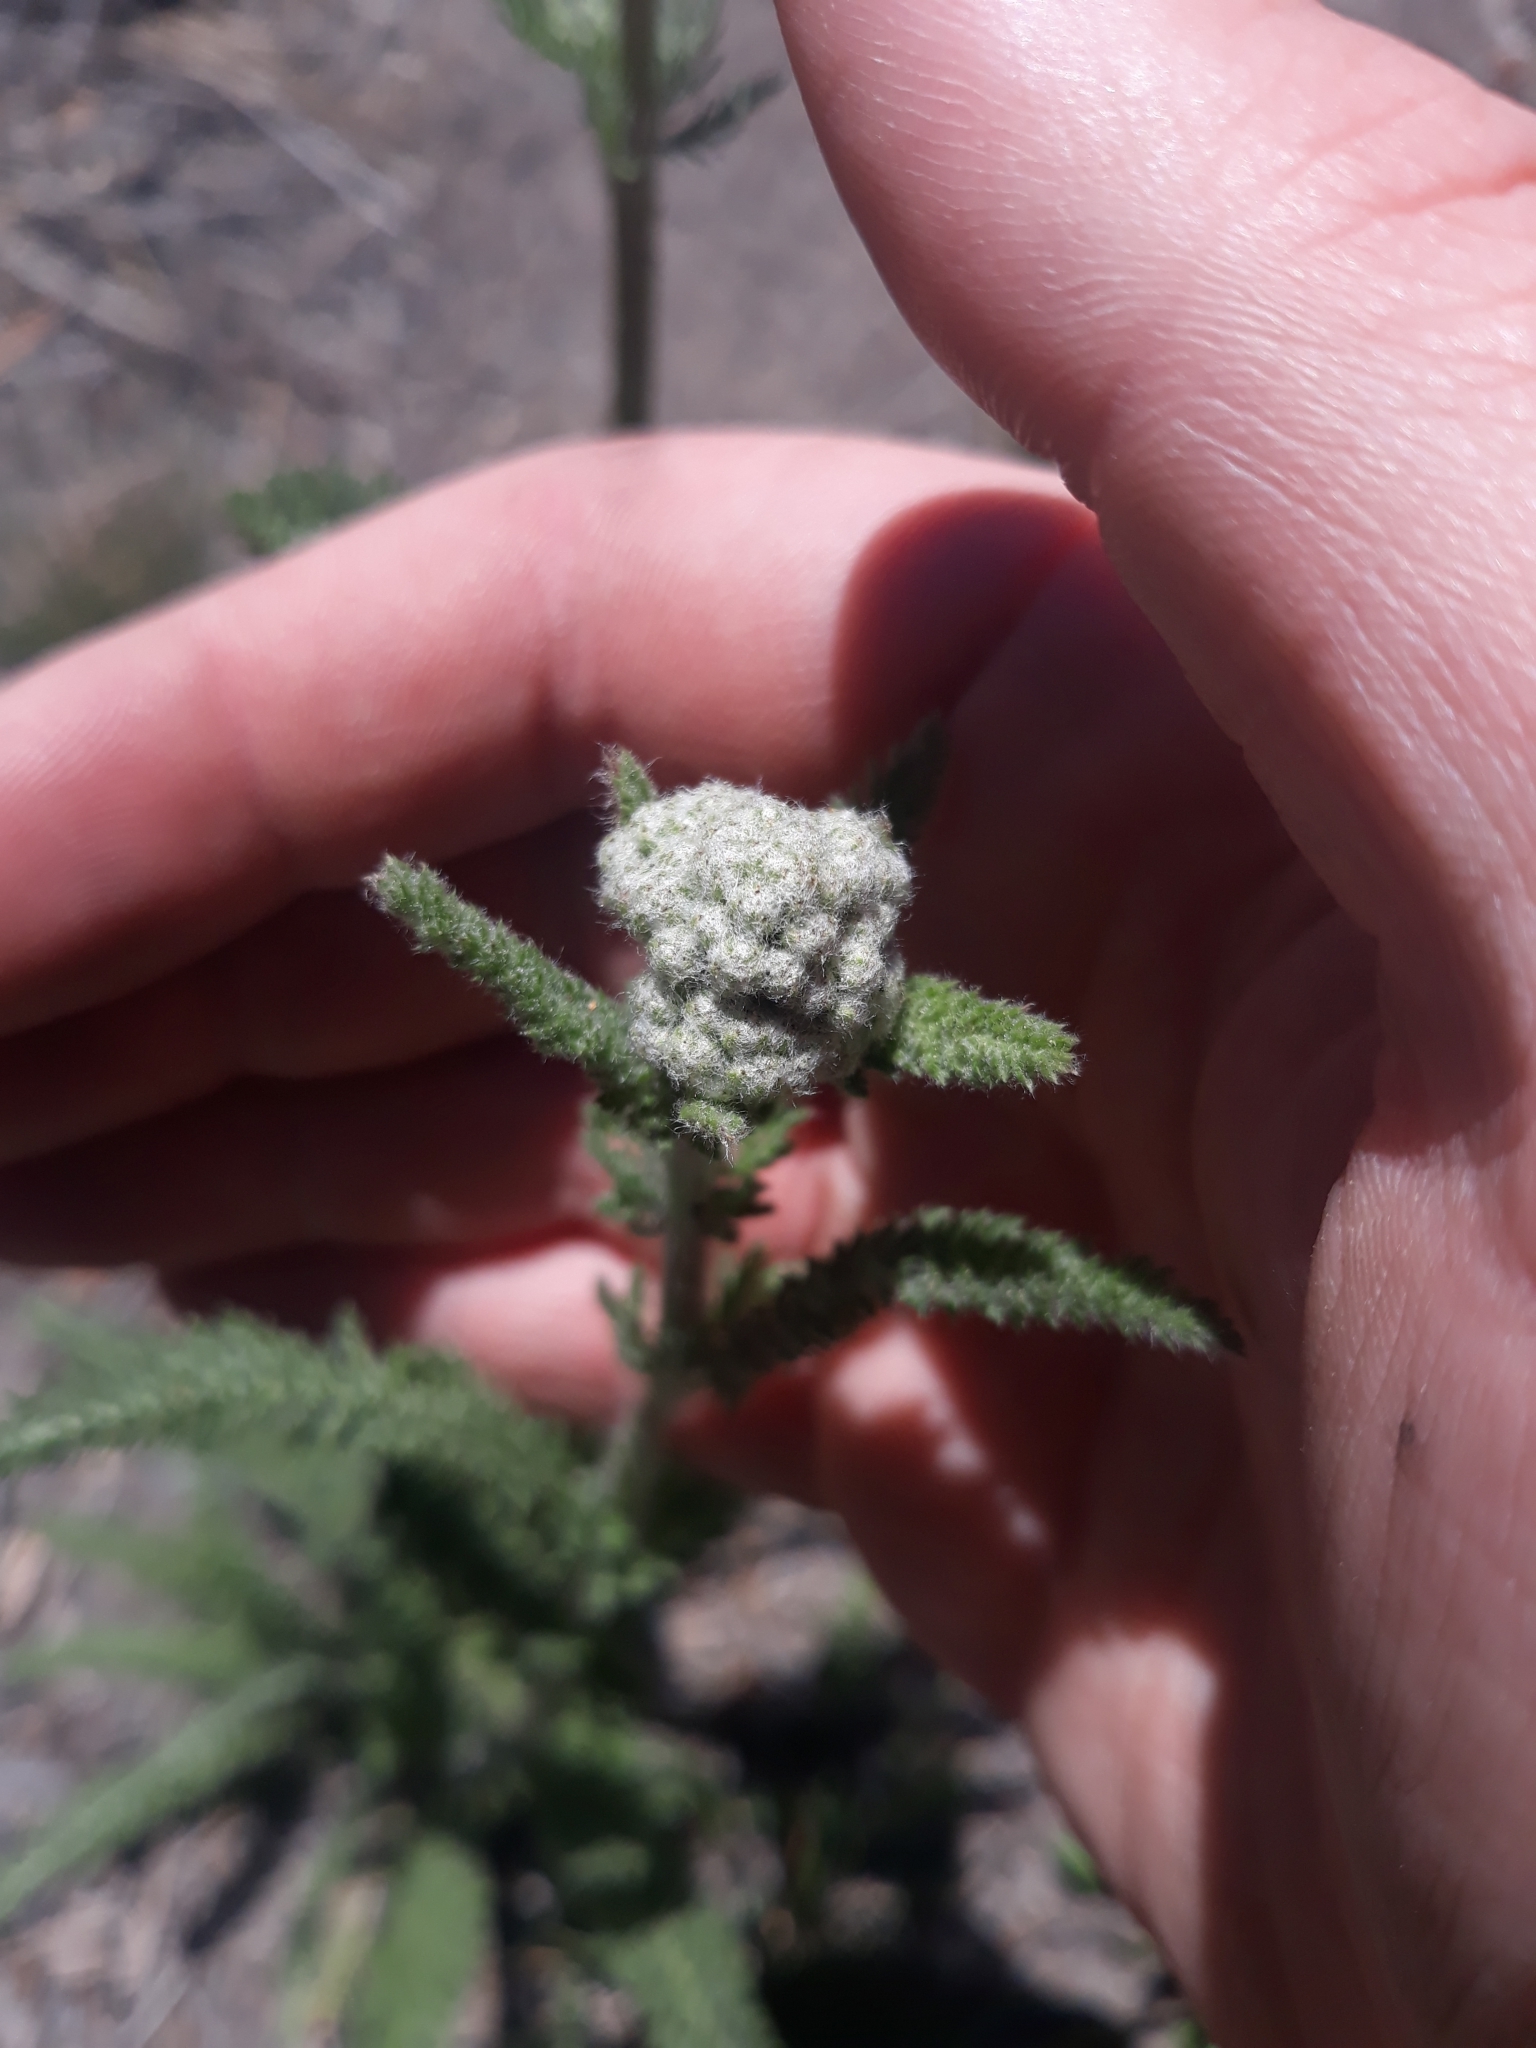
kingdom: Plantae
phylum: Tracheophyta
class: Magnoliopsida
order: Asterales
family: Asteraceae
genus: Achillea
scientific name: Achillea millefolium
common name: Yarrow
